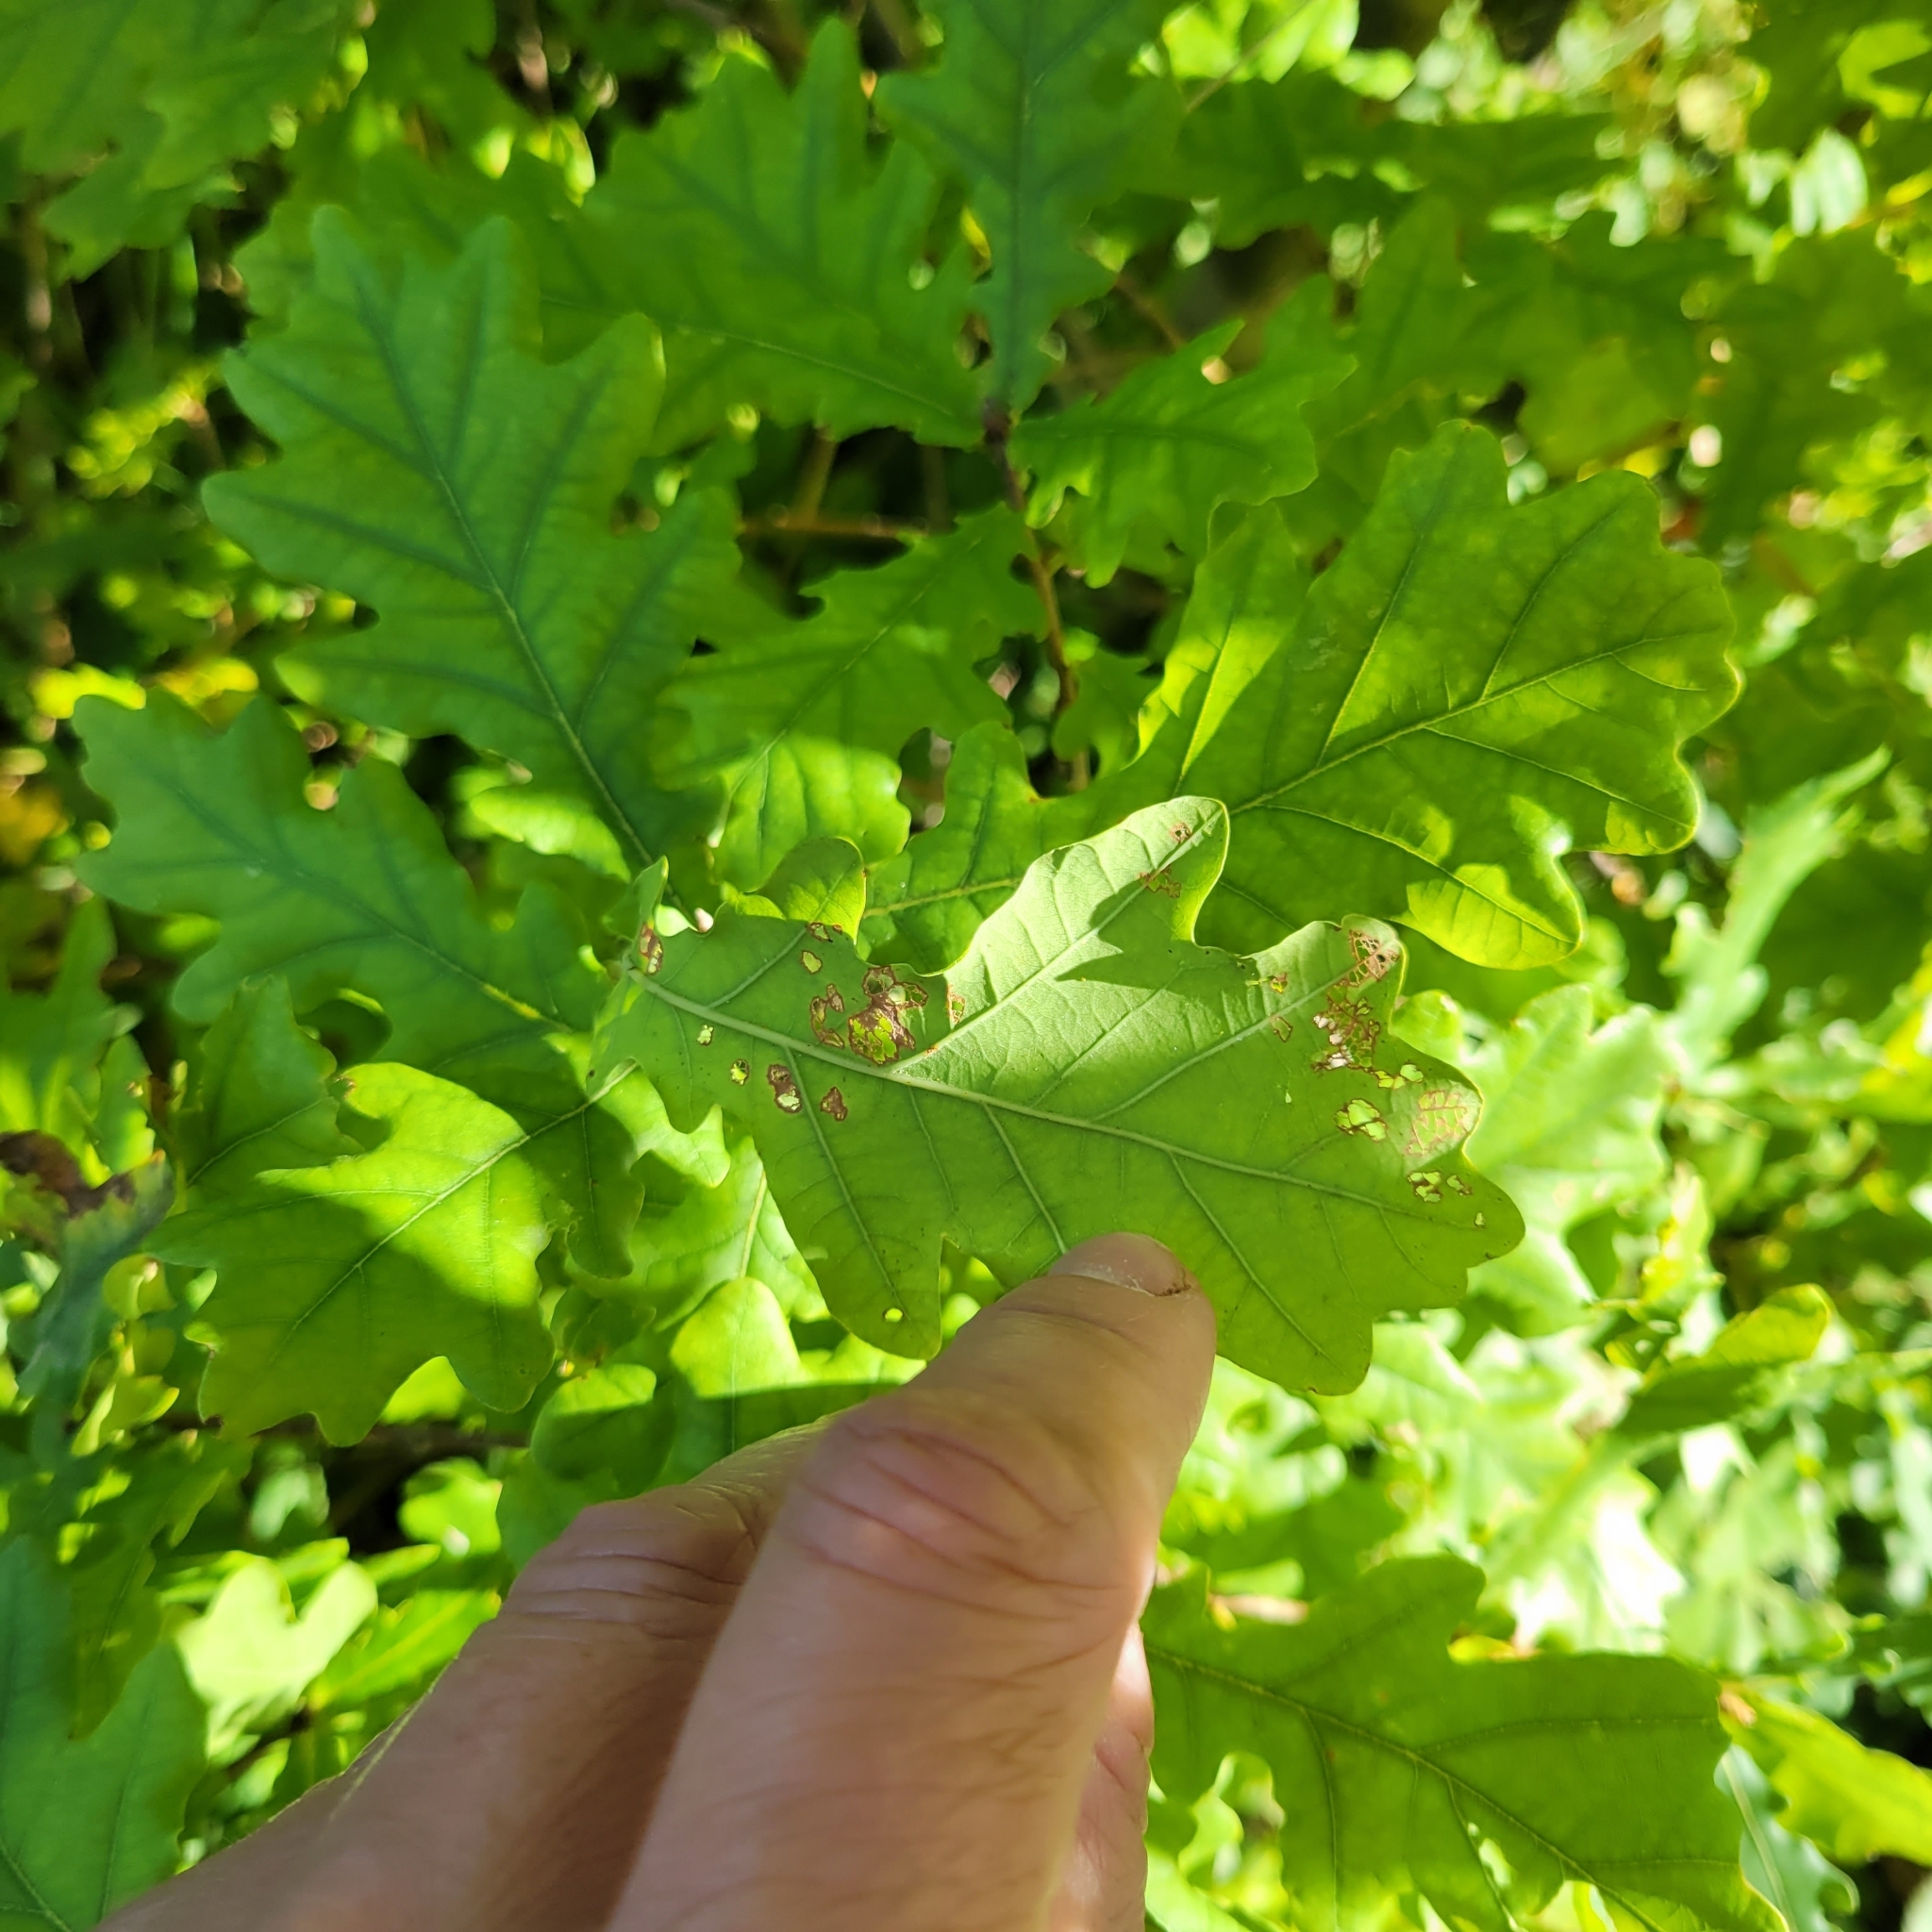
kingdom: Plantae
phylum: Tracheophyta
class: Magnoliopsida
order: Fagales
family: Fagaceae
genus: Quercus
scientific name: Quercus robur
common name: Pedunculate oak
